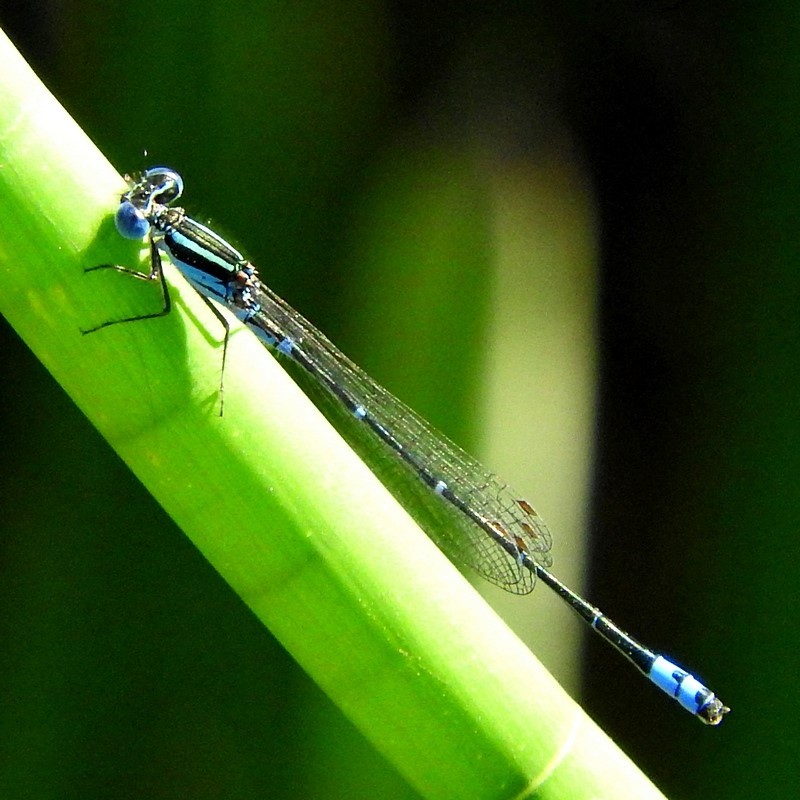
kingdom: Animalia
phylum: Arthropoda
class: Insecta
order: Odonata
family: Coenagrionidae
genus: Austroagrion
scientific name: Austroagrion watsoni
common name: Eastern billabongfly
